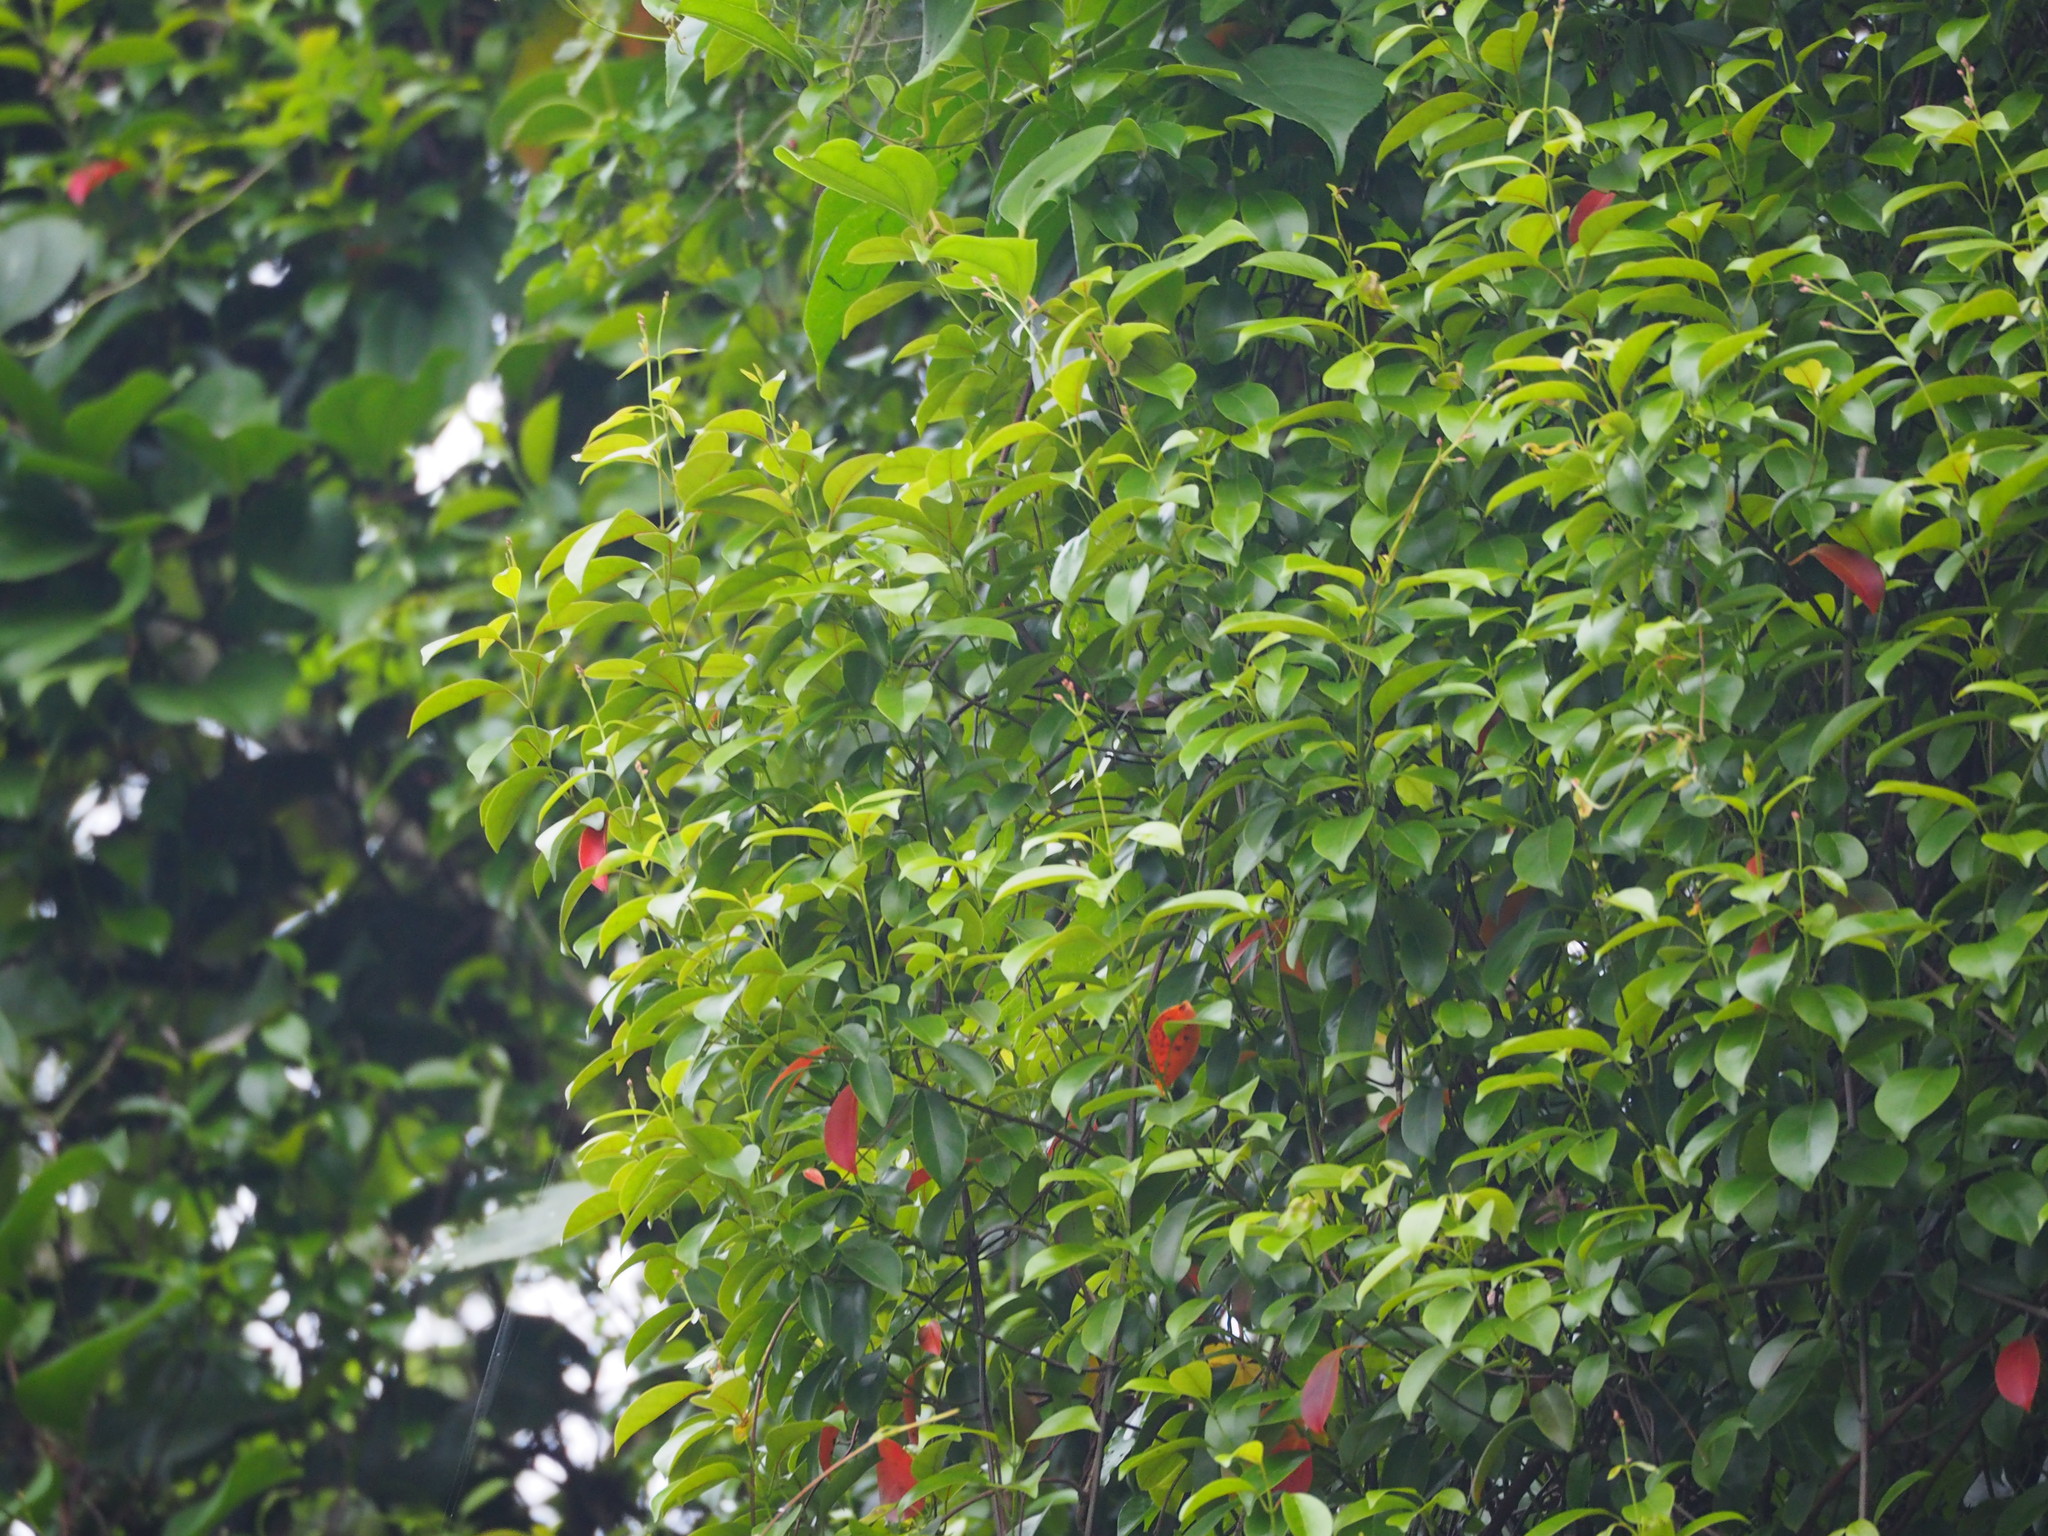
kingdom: Plantae
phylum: Tracheophyta
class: Magnoliopsida
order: Gentianales
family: Apocynaceae
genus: Urceola
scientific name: Urceola rosea
